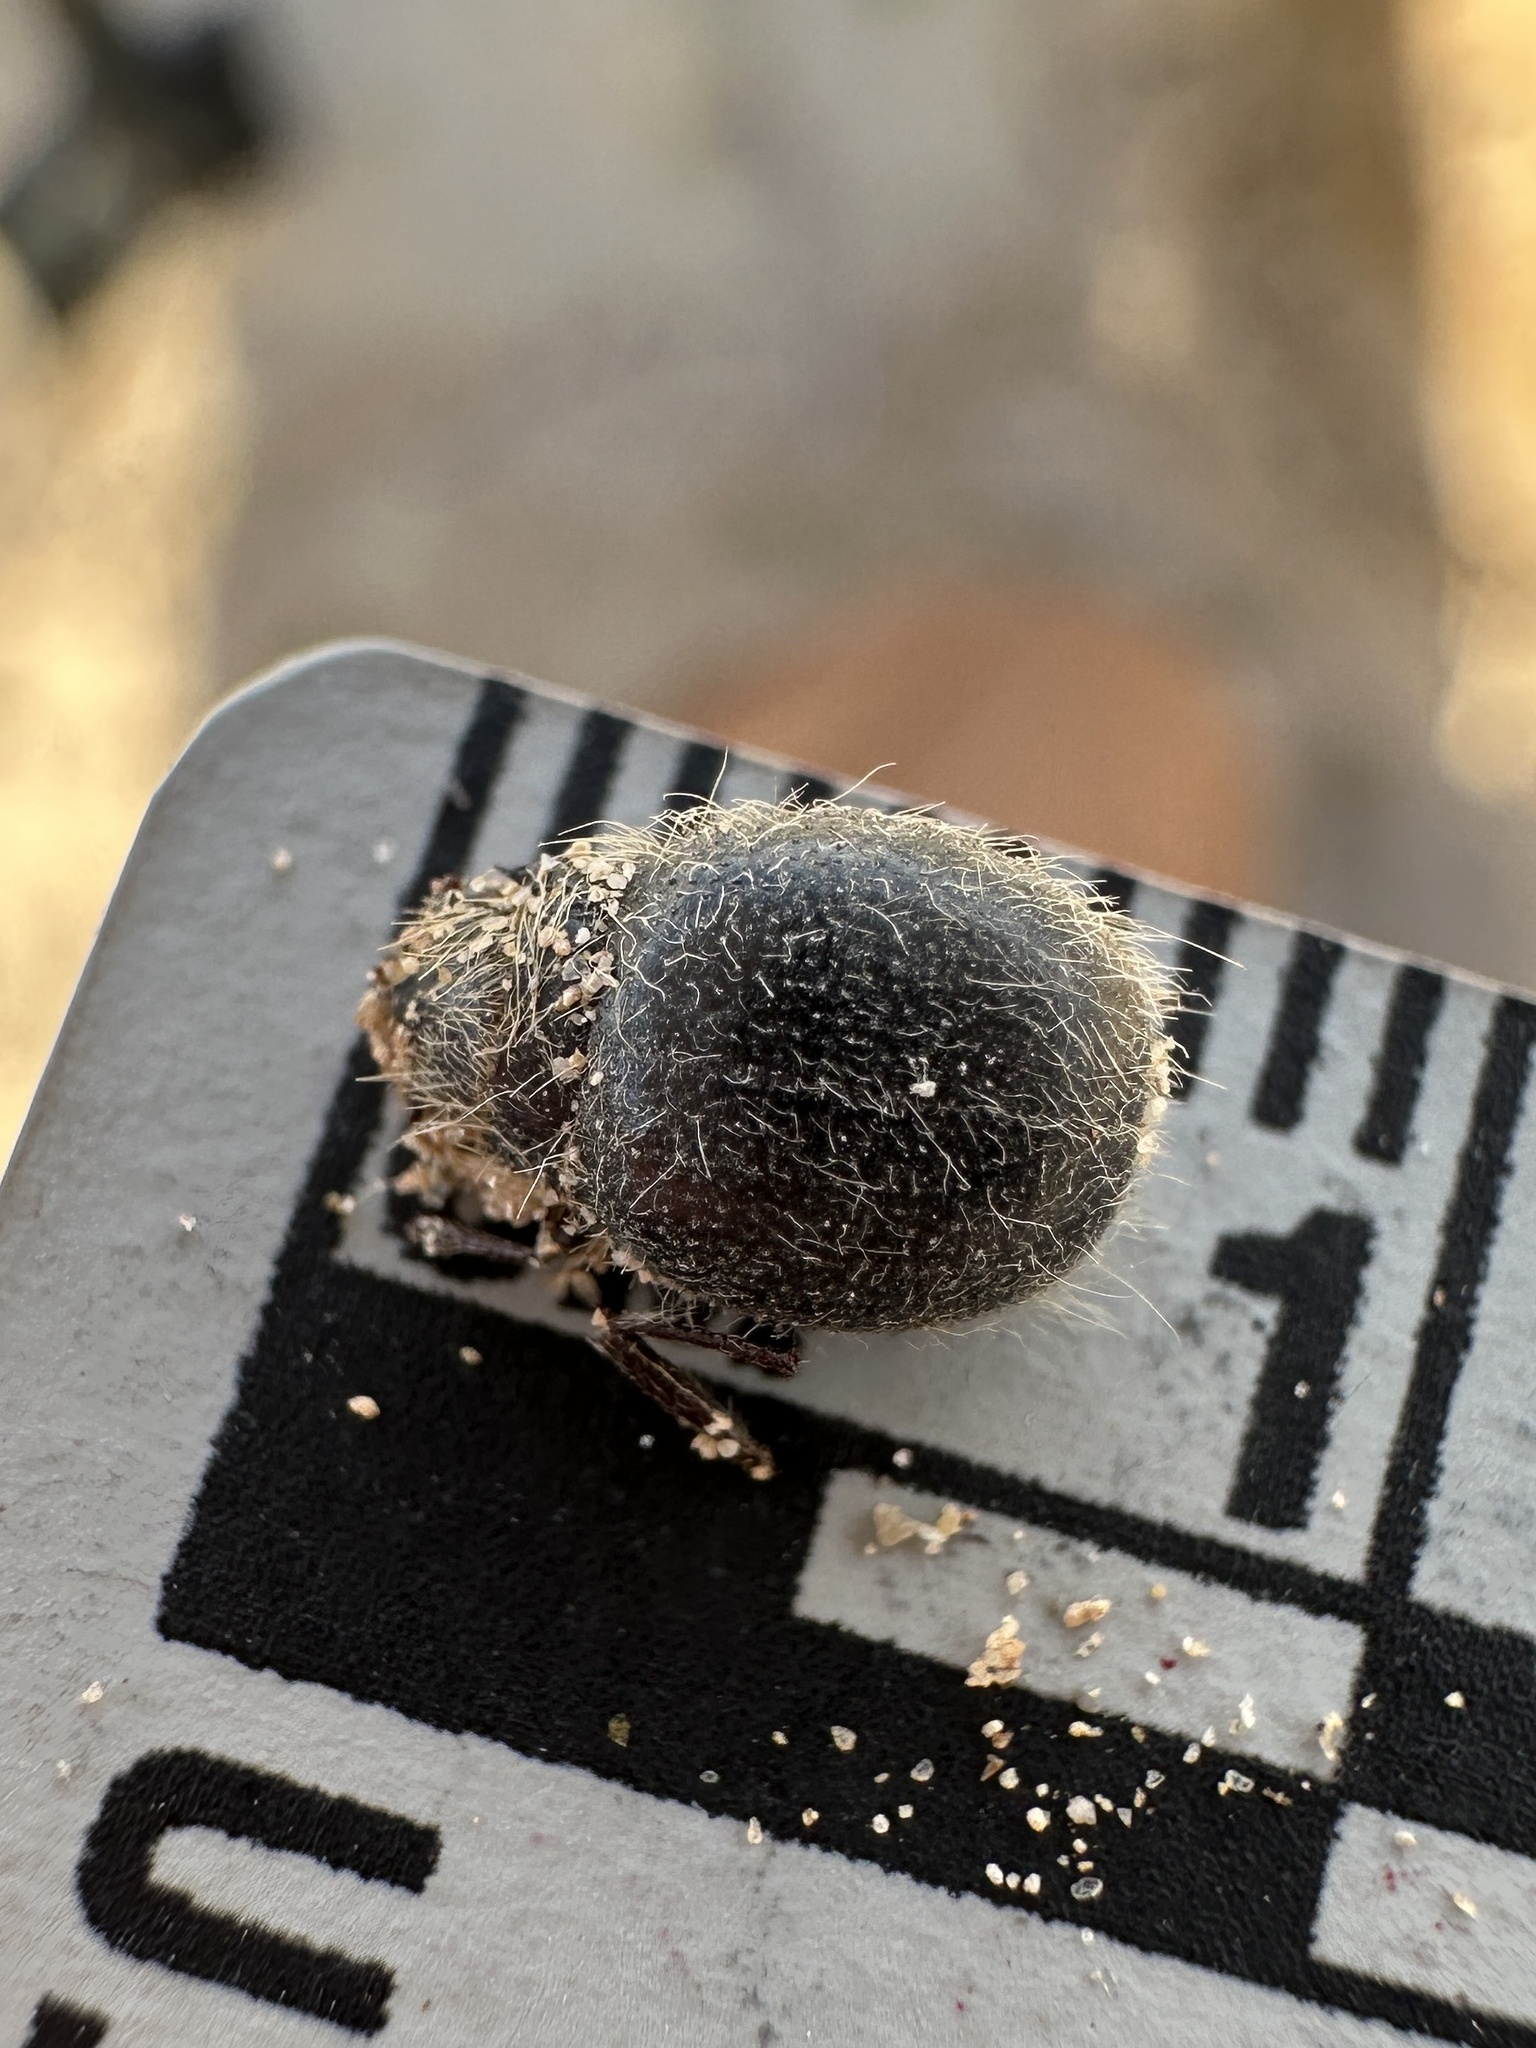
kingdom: Animalia
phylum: Arthropoda
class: Insecta
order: Coleoptera
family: Tenebrionidae
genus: Edrotes
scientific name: Edrotes ventricosus
